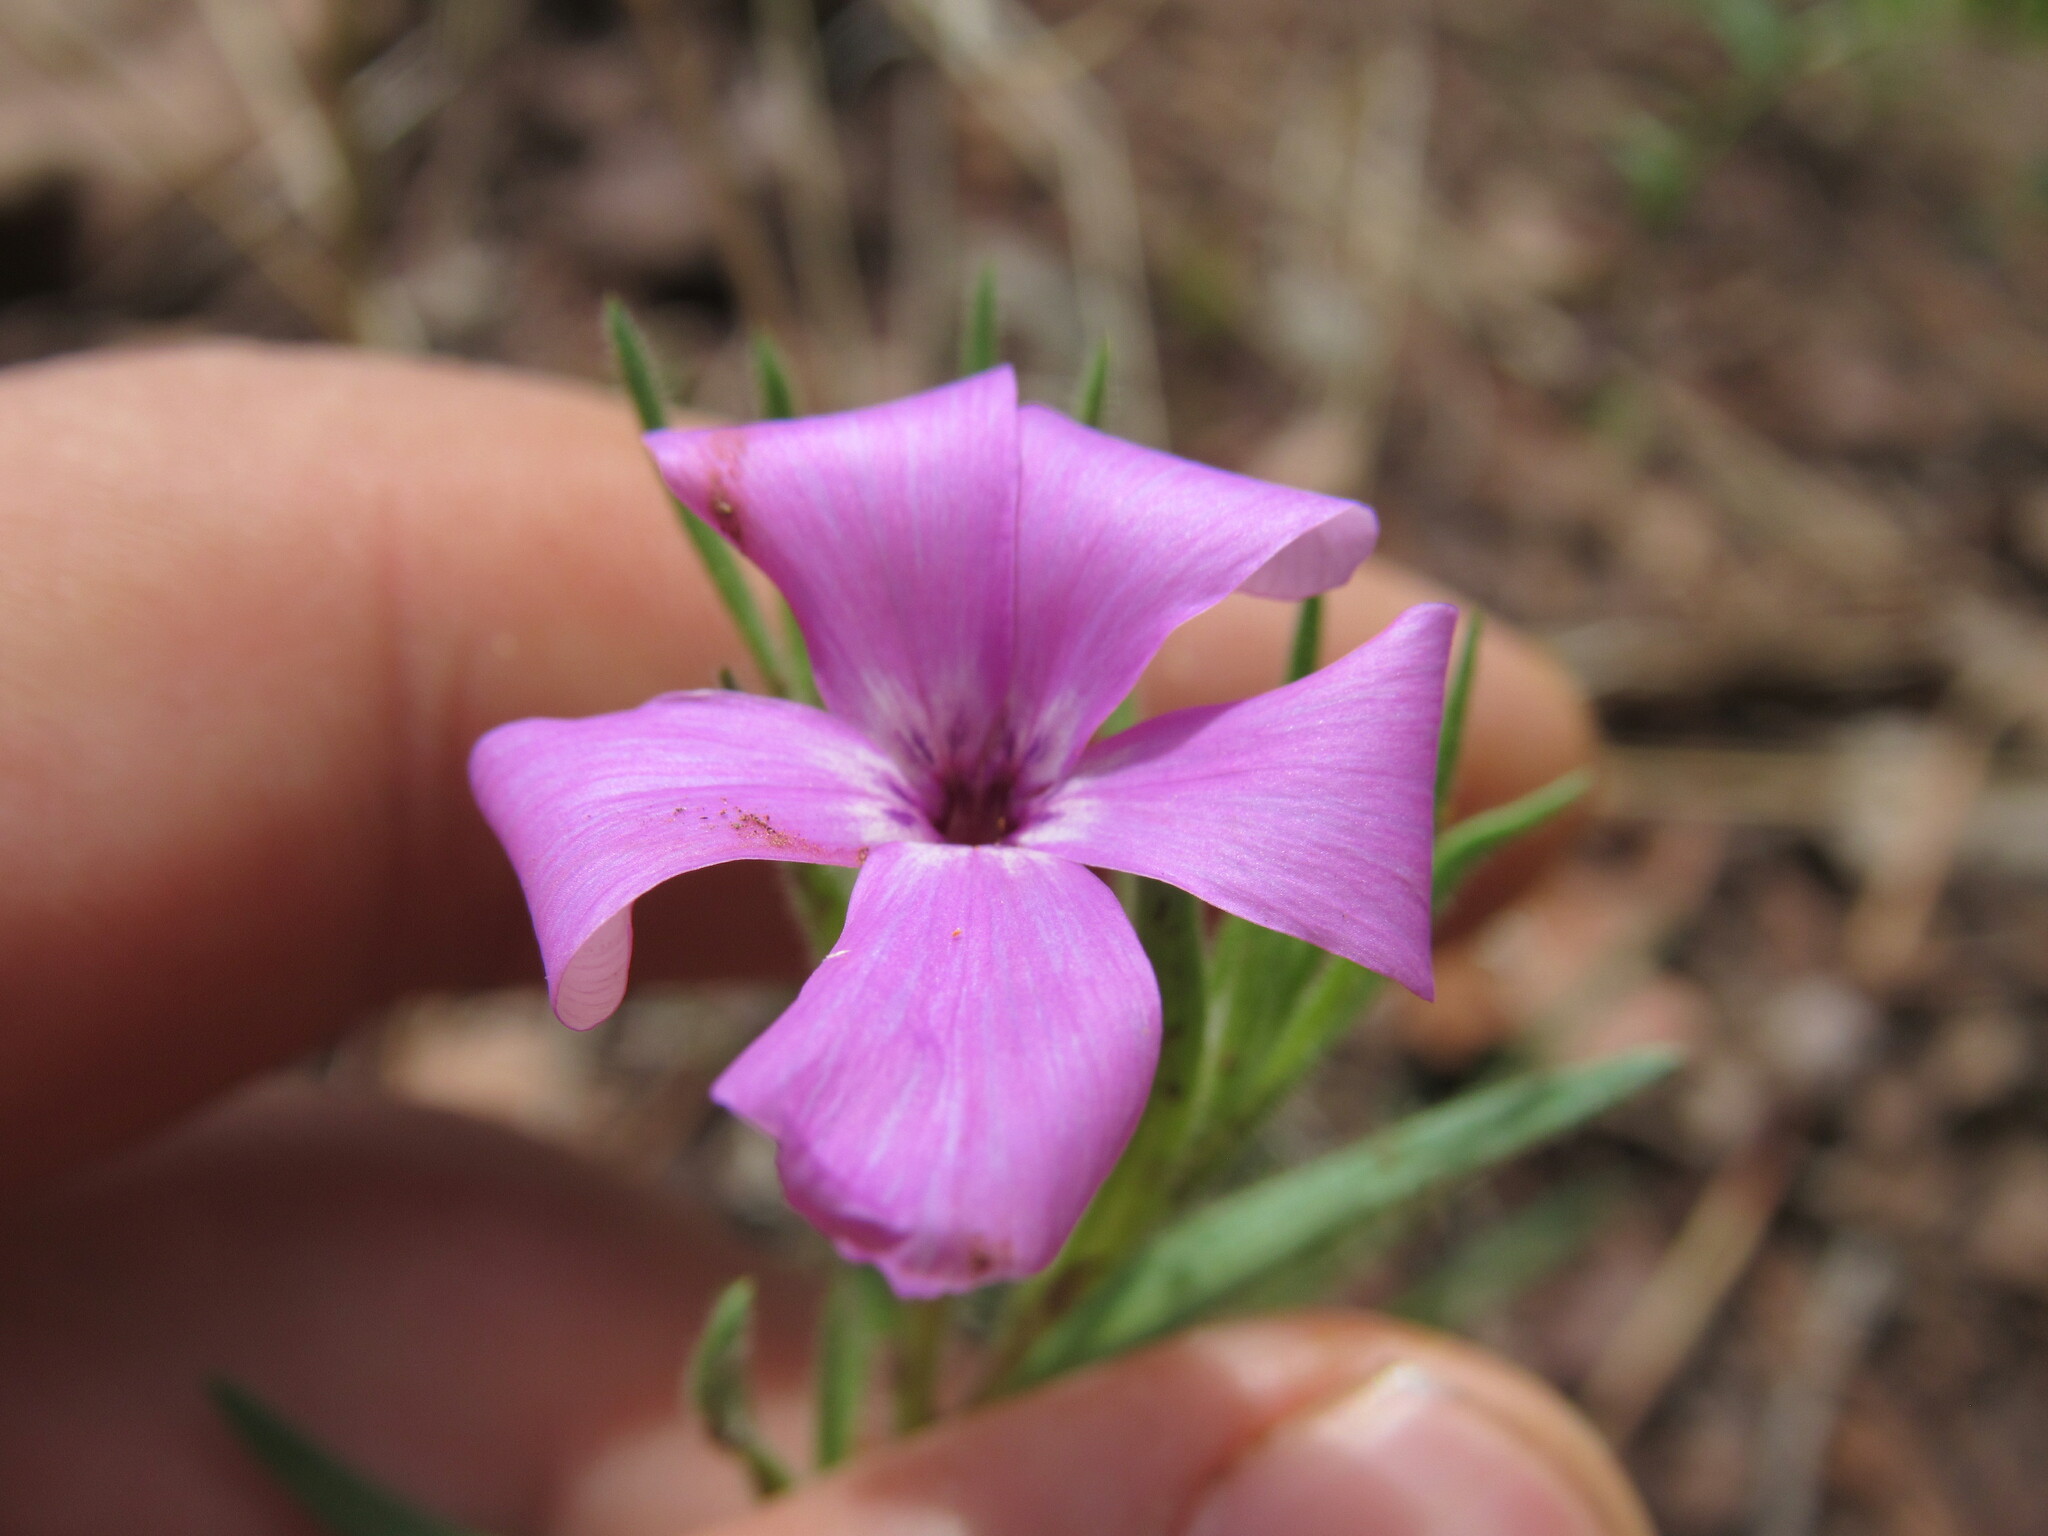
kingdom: Plantae
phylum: Tracheophyta
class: Magnoliopsida
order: Ericales
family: Polemoniaceae
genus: Phlox
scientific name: Phlox nana
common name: Santa fe phlox
